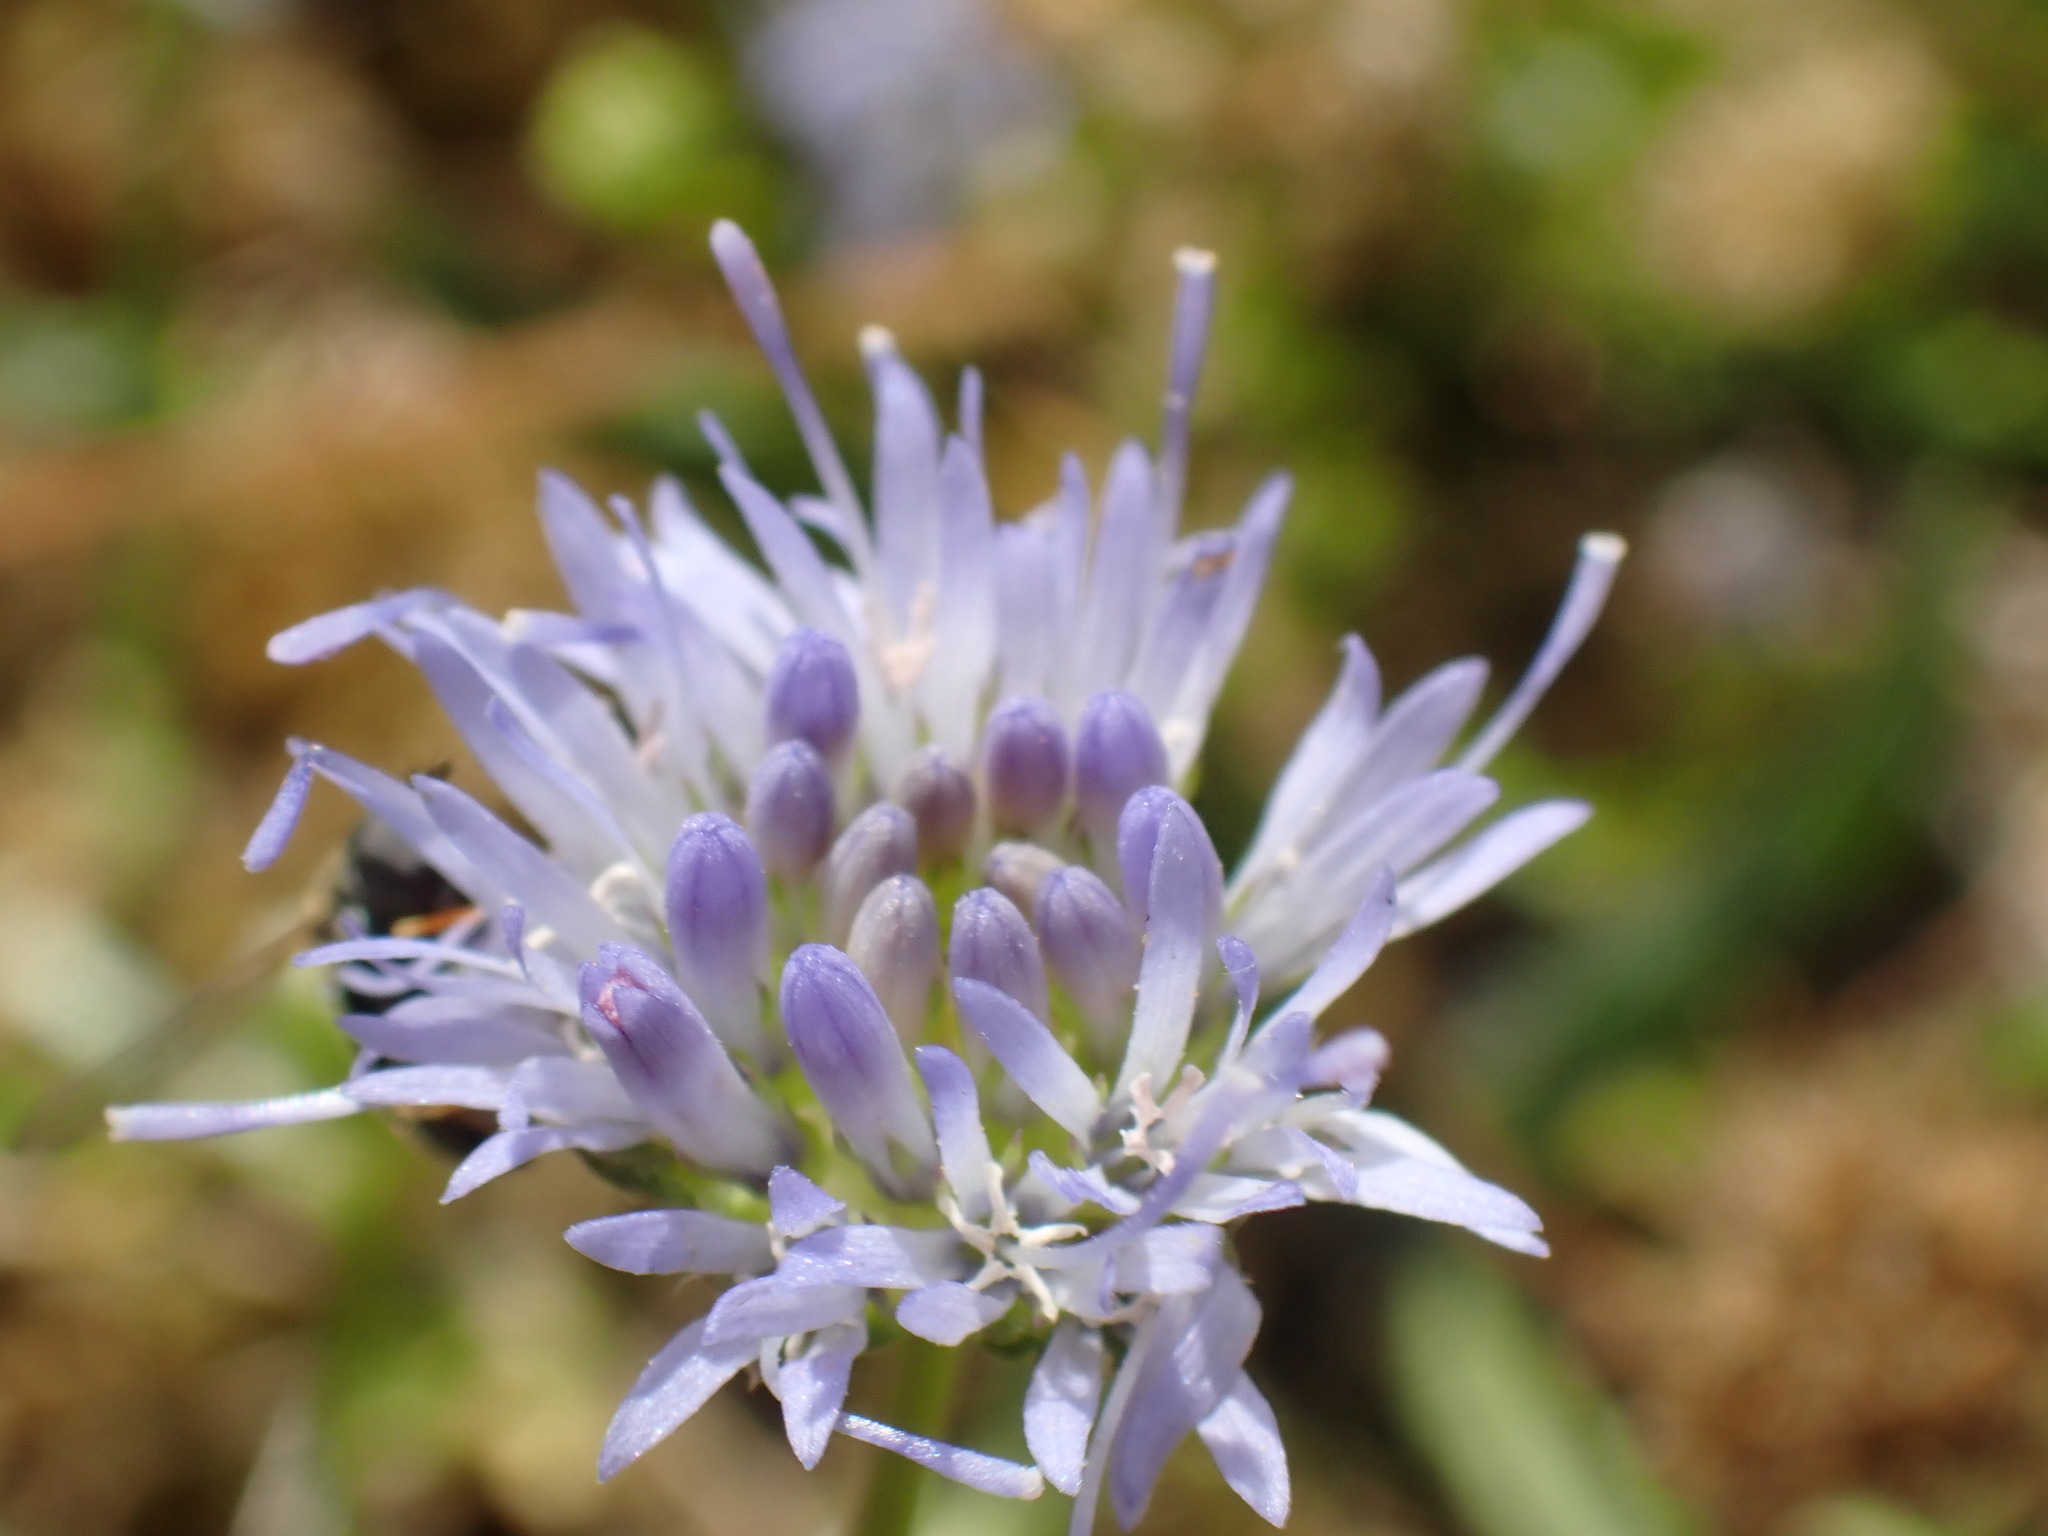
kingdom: Plantae
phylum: Tracheophyta
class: Magnoliopsida
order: Asterales
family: Campanulaceae
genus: Jasione
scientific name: Jasione montana
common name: Sheep's-bit
